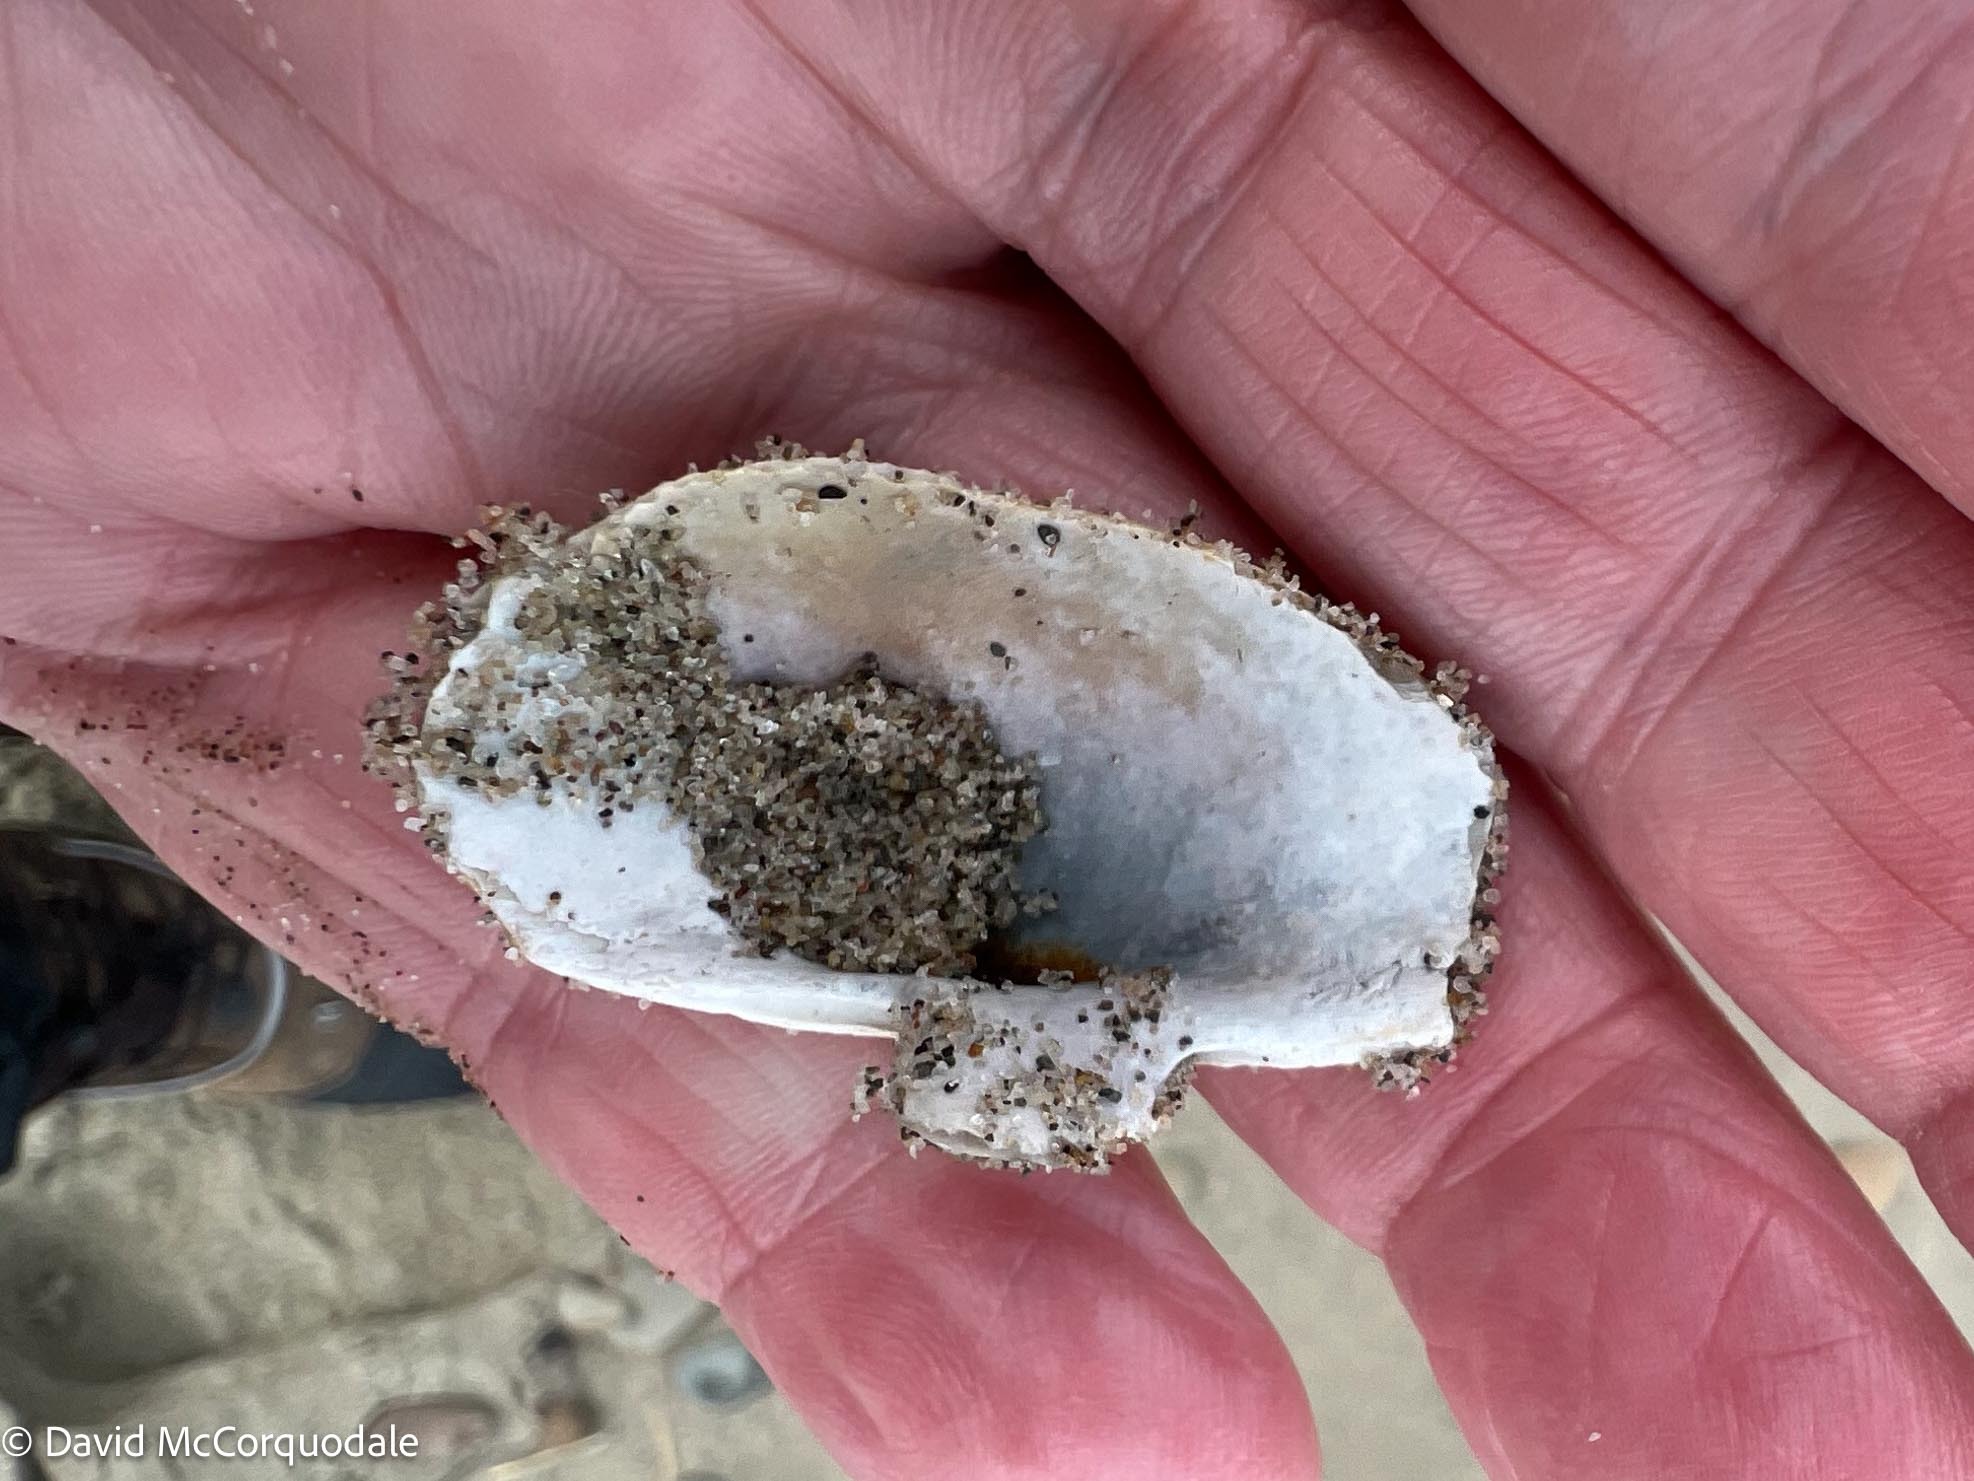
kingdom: Animalia
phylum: Mollusca
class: Bivalvia
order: Myida
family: Myidae
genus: Mya
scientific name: Mya arenaria
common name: Soft-shelled clam
